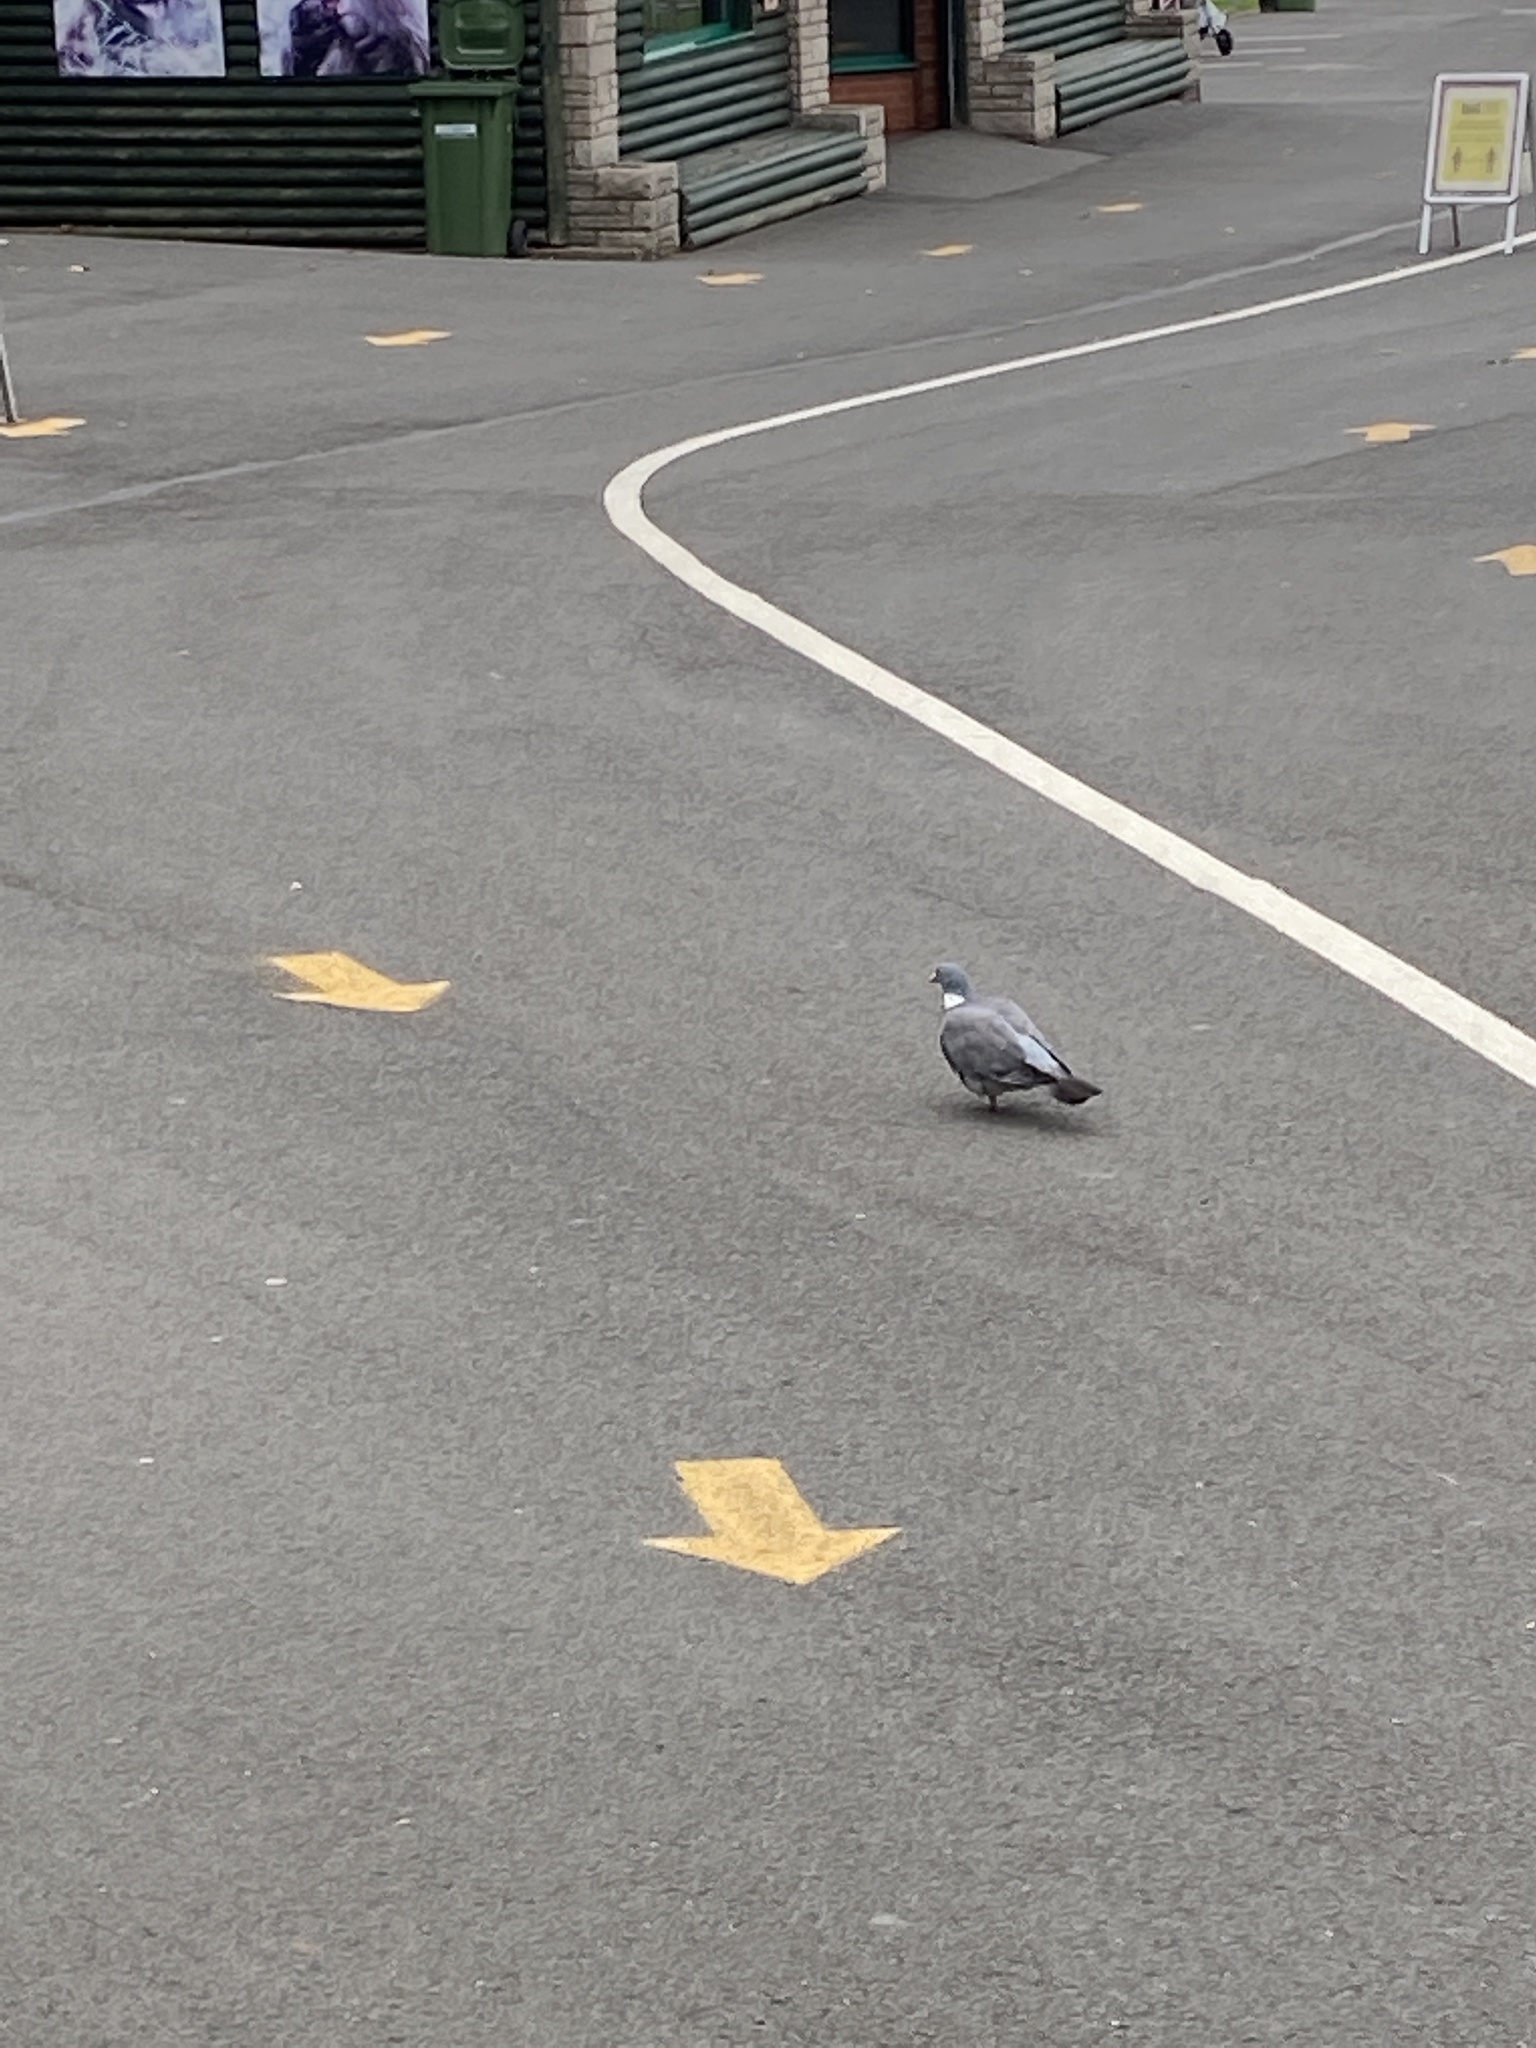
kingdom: Animalia
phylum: Chordata
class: Aves
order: Columbiformes
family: Columbidae
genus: Columba
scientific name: Columba palumbus
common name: Common wood pigeon
